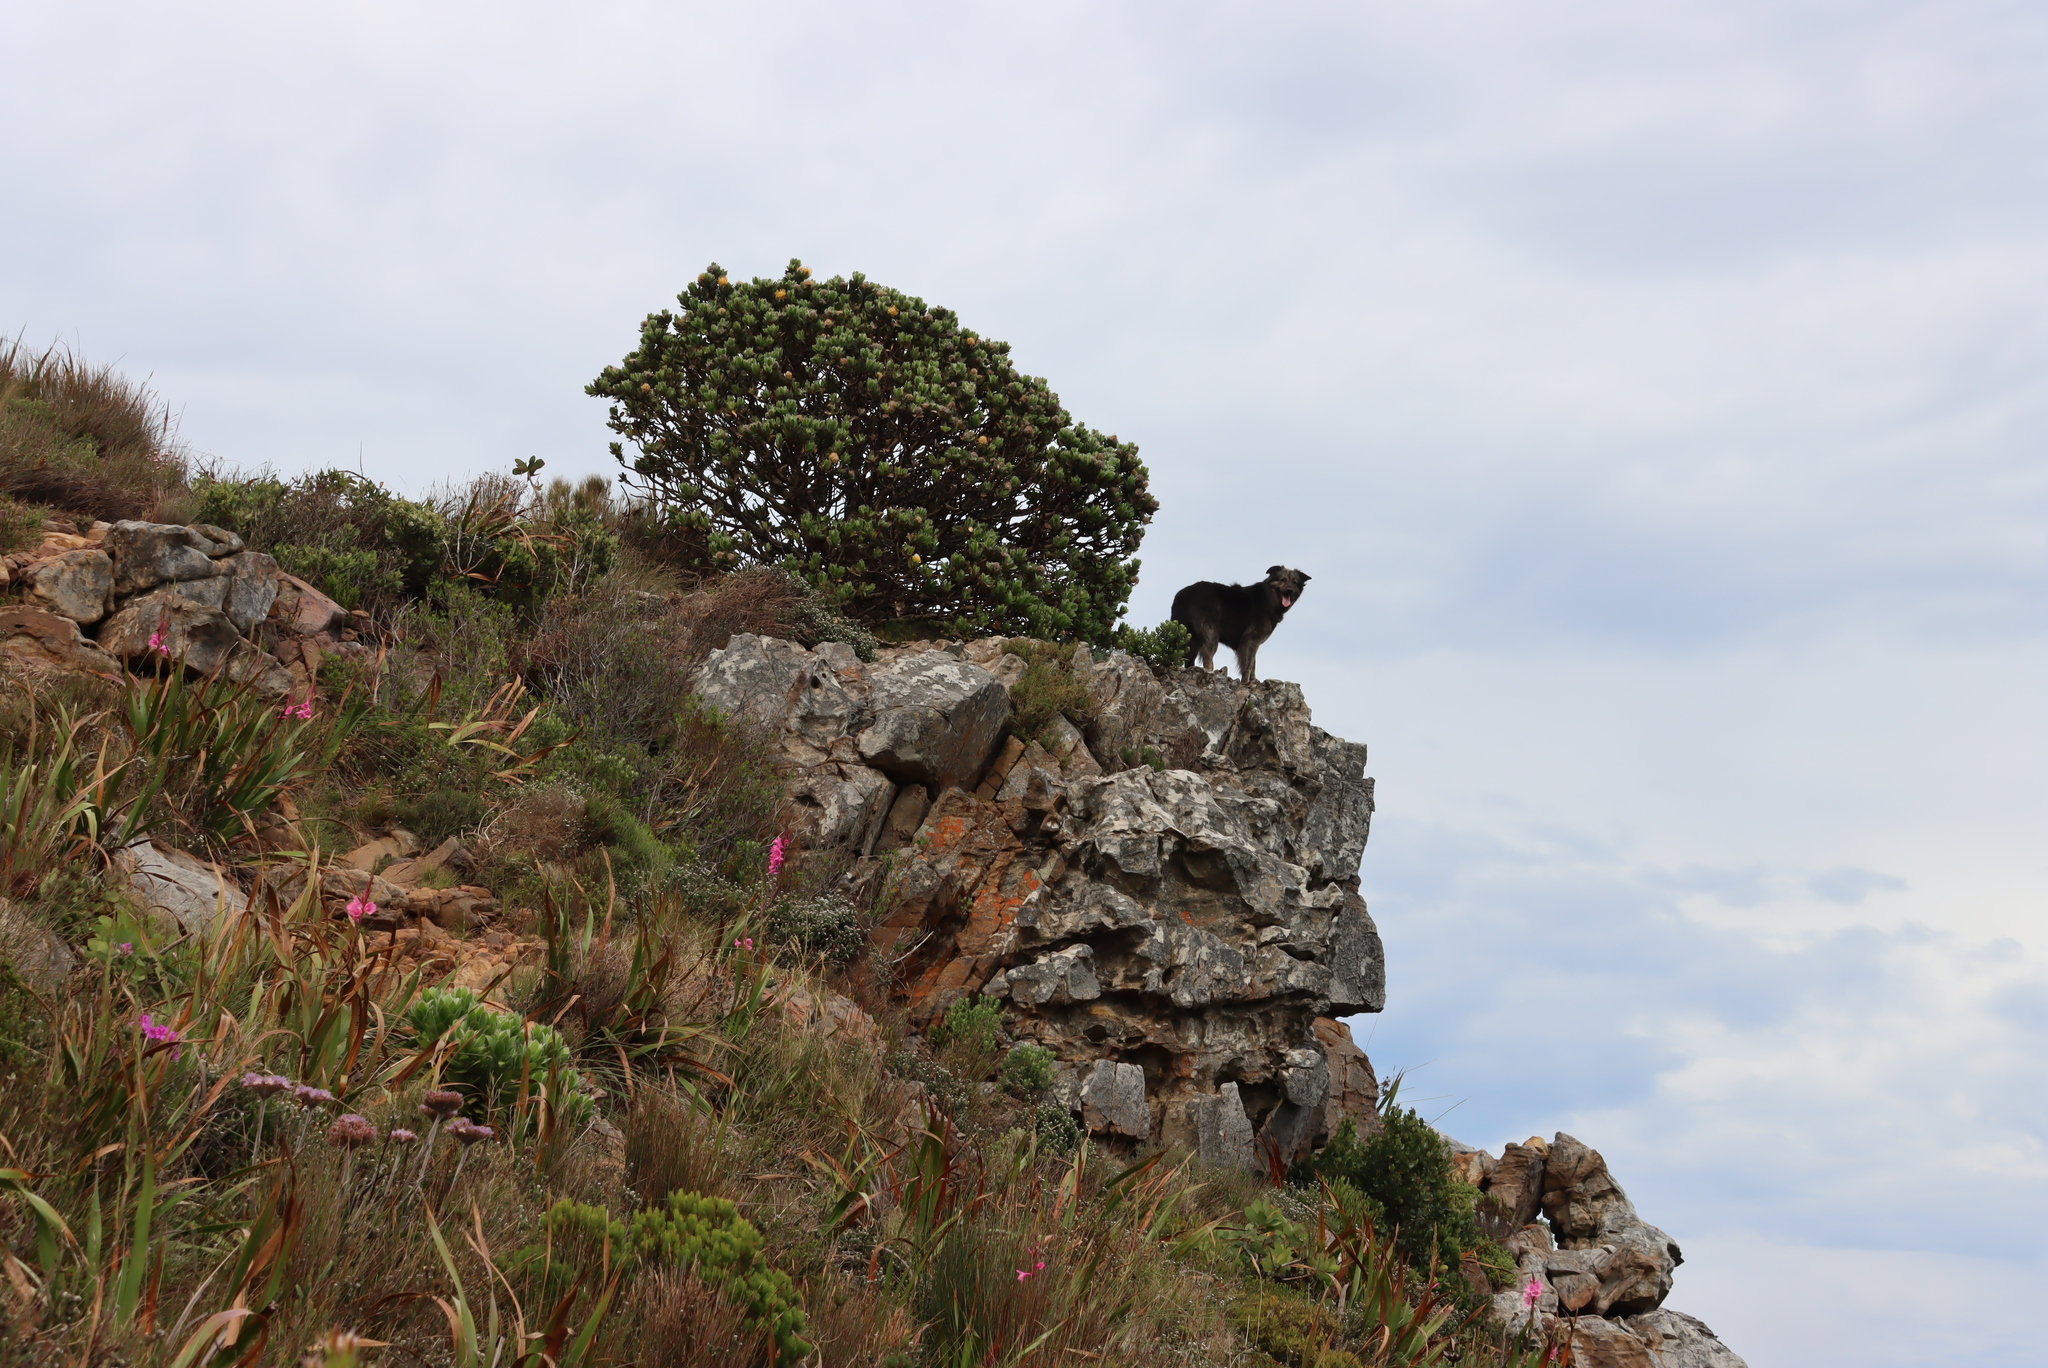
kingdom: Plantae
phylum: Tracheophyta
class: Magnoliopsida
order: Proteales
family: Proteaceae
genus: Leucospermum
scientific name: Leucospermum conocarpodendron
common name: Tree pincushion
